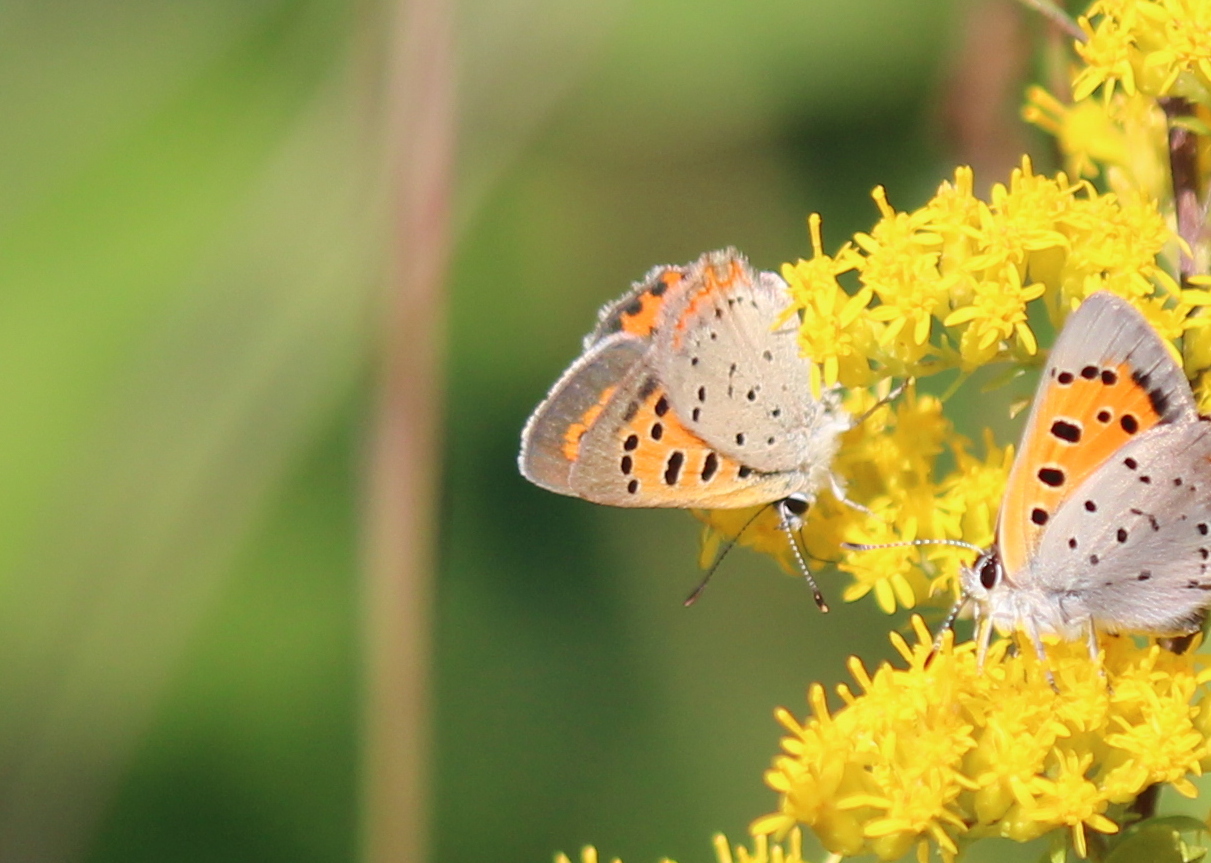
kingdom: Animalia
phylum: Arthropoda
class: Insecta
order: Lepidoptera
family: Lycaenidae
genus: Lycaena
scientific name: Lycaena hypophlaeas
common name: American copper
